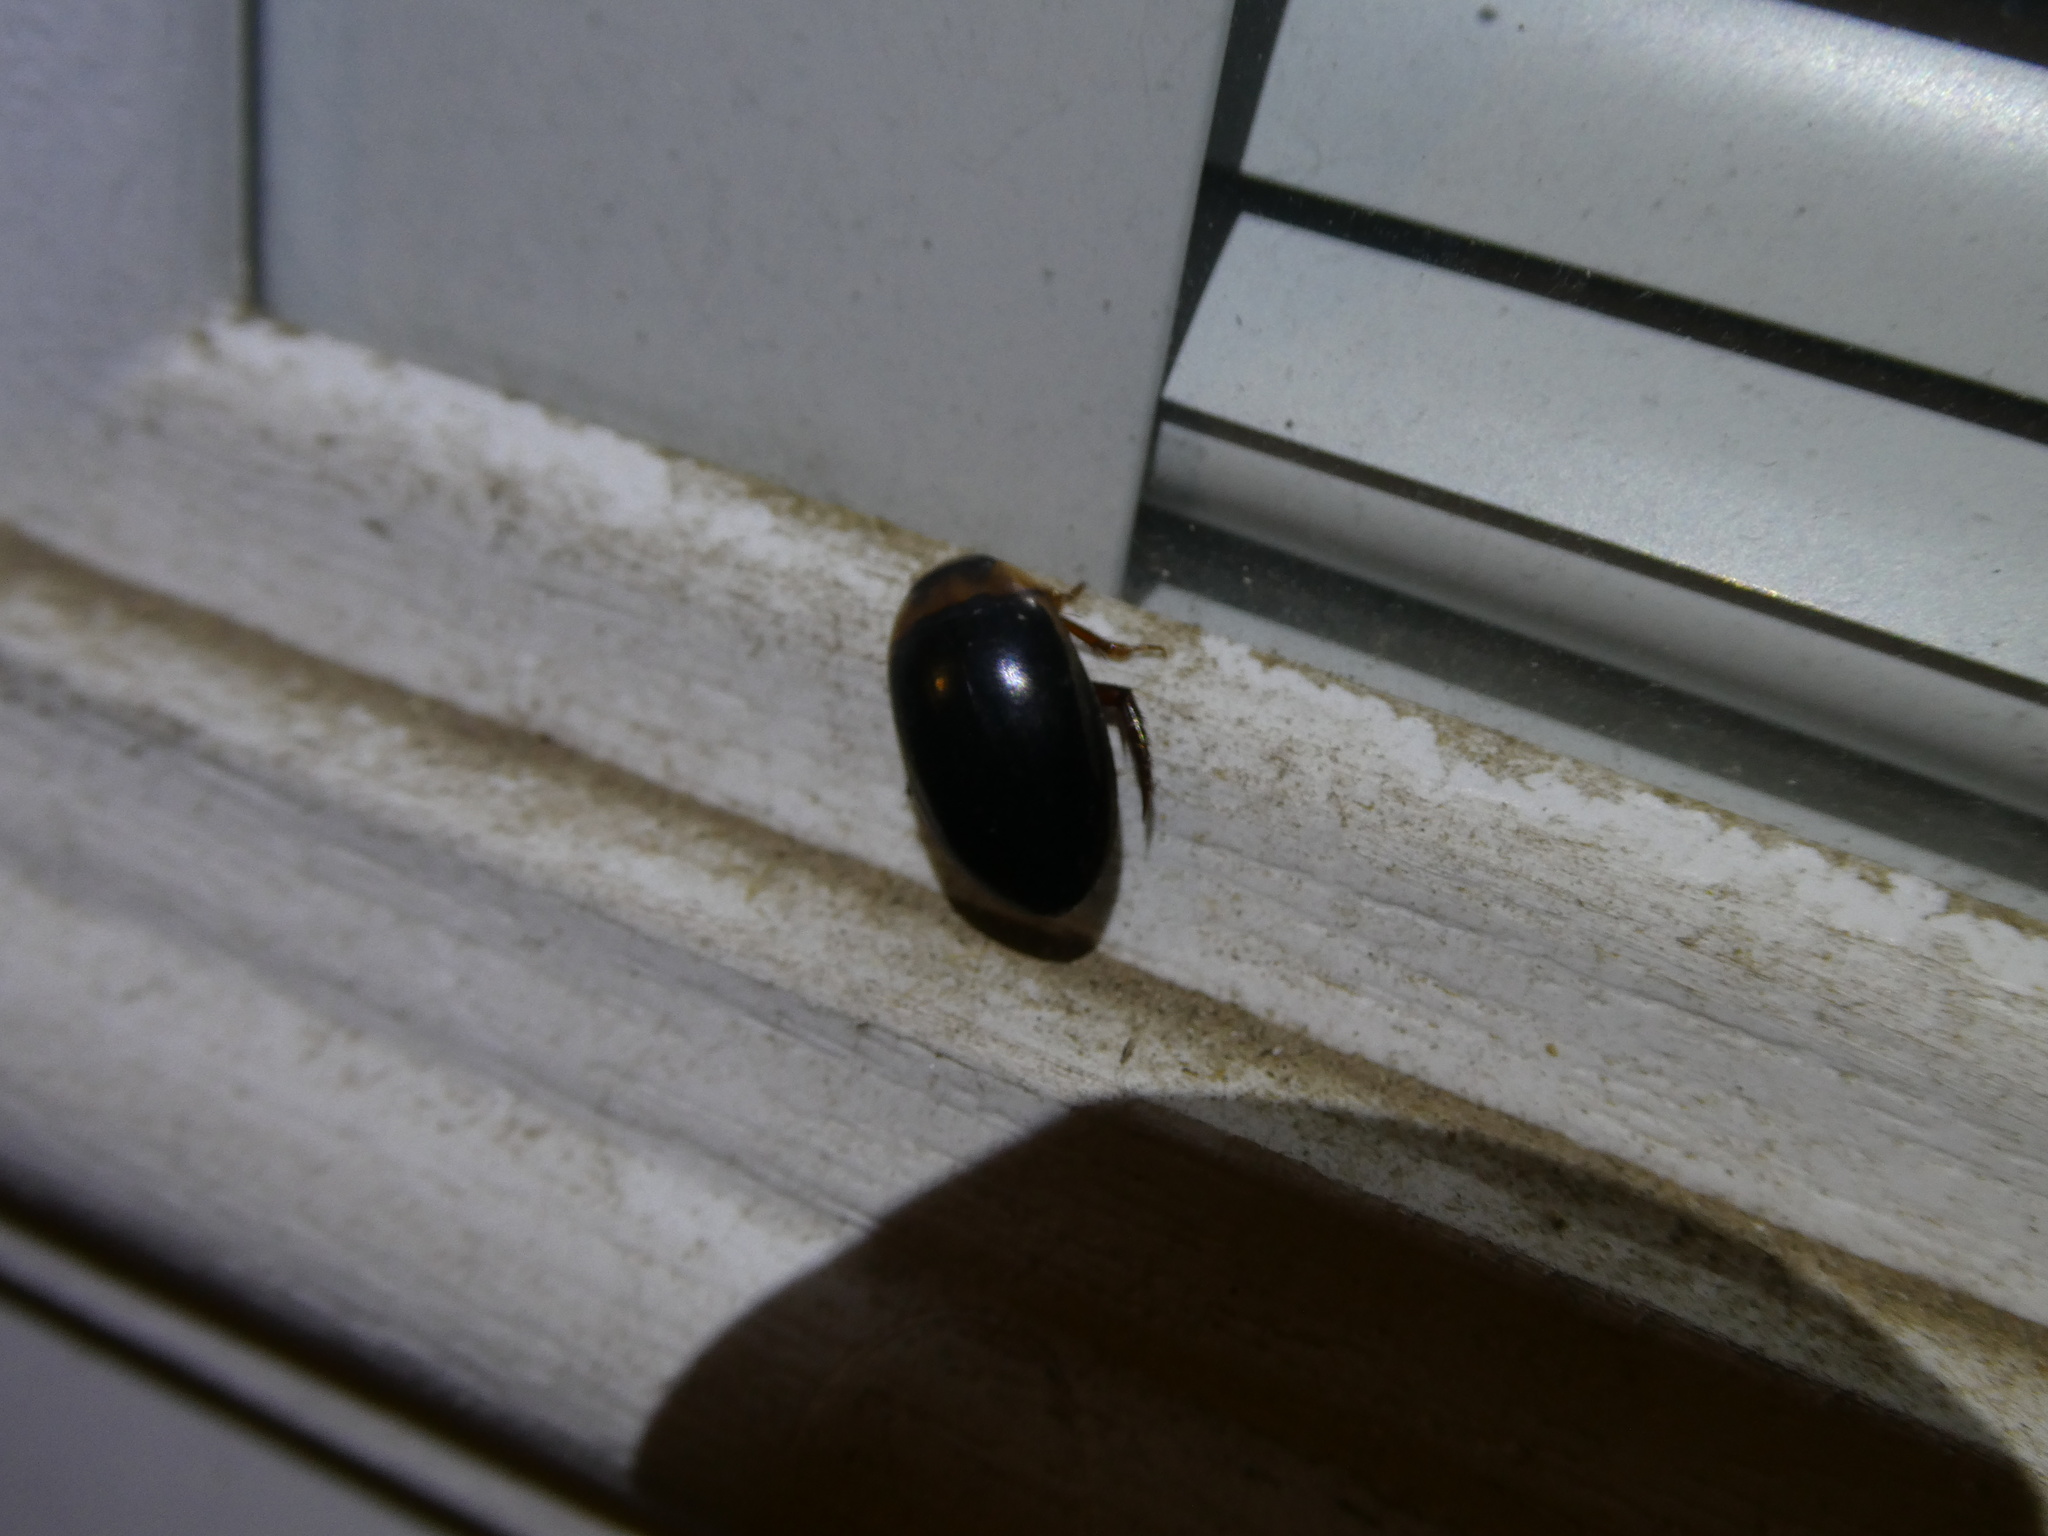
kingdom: Animalia
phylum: Arthropoda
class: Insecta
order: Coleoptera
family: Dytiscidae
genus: Hydaticus
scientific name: Hydaticus
